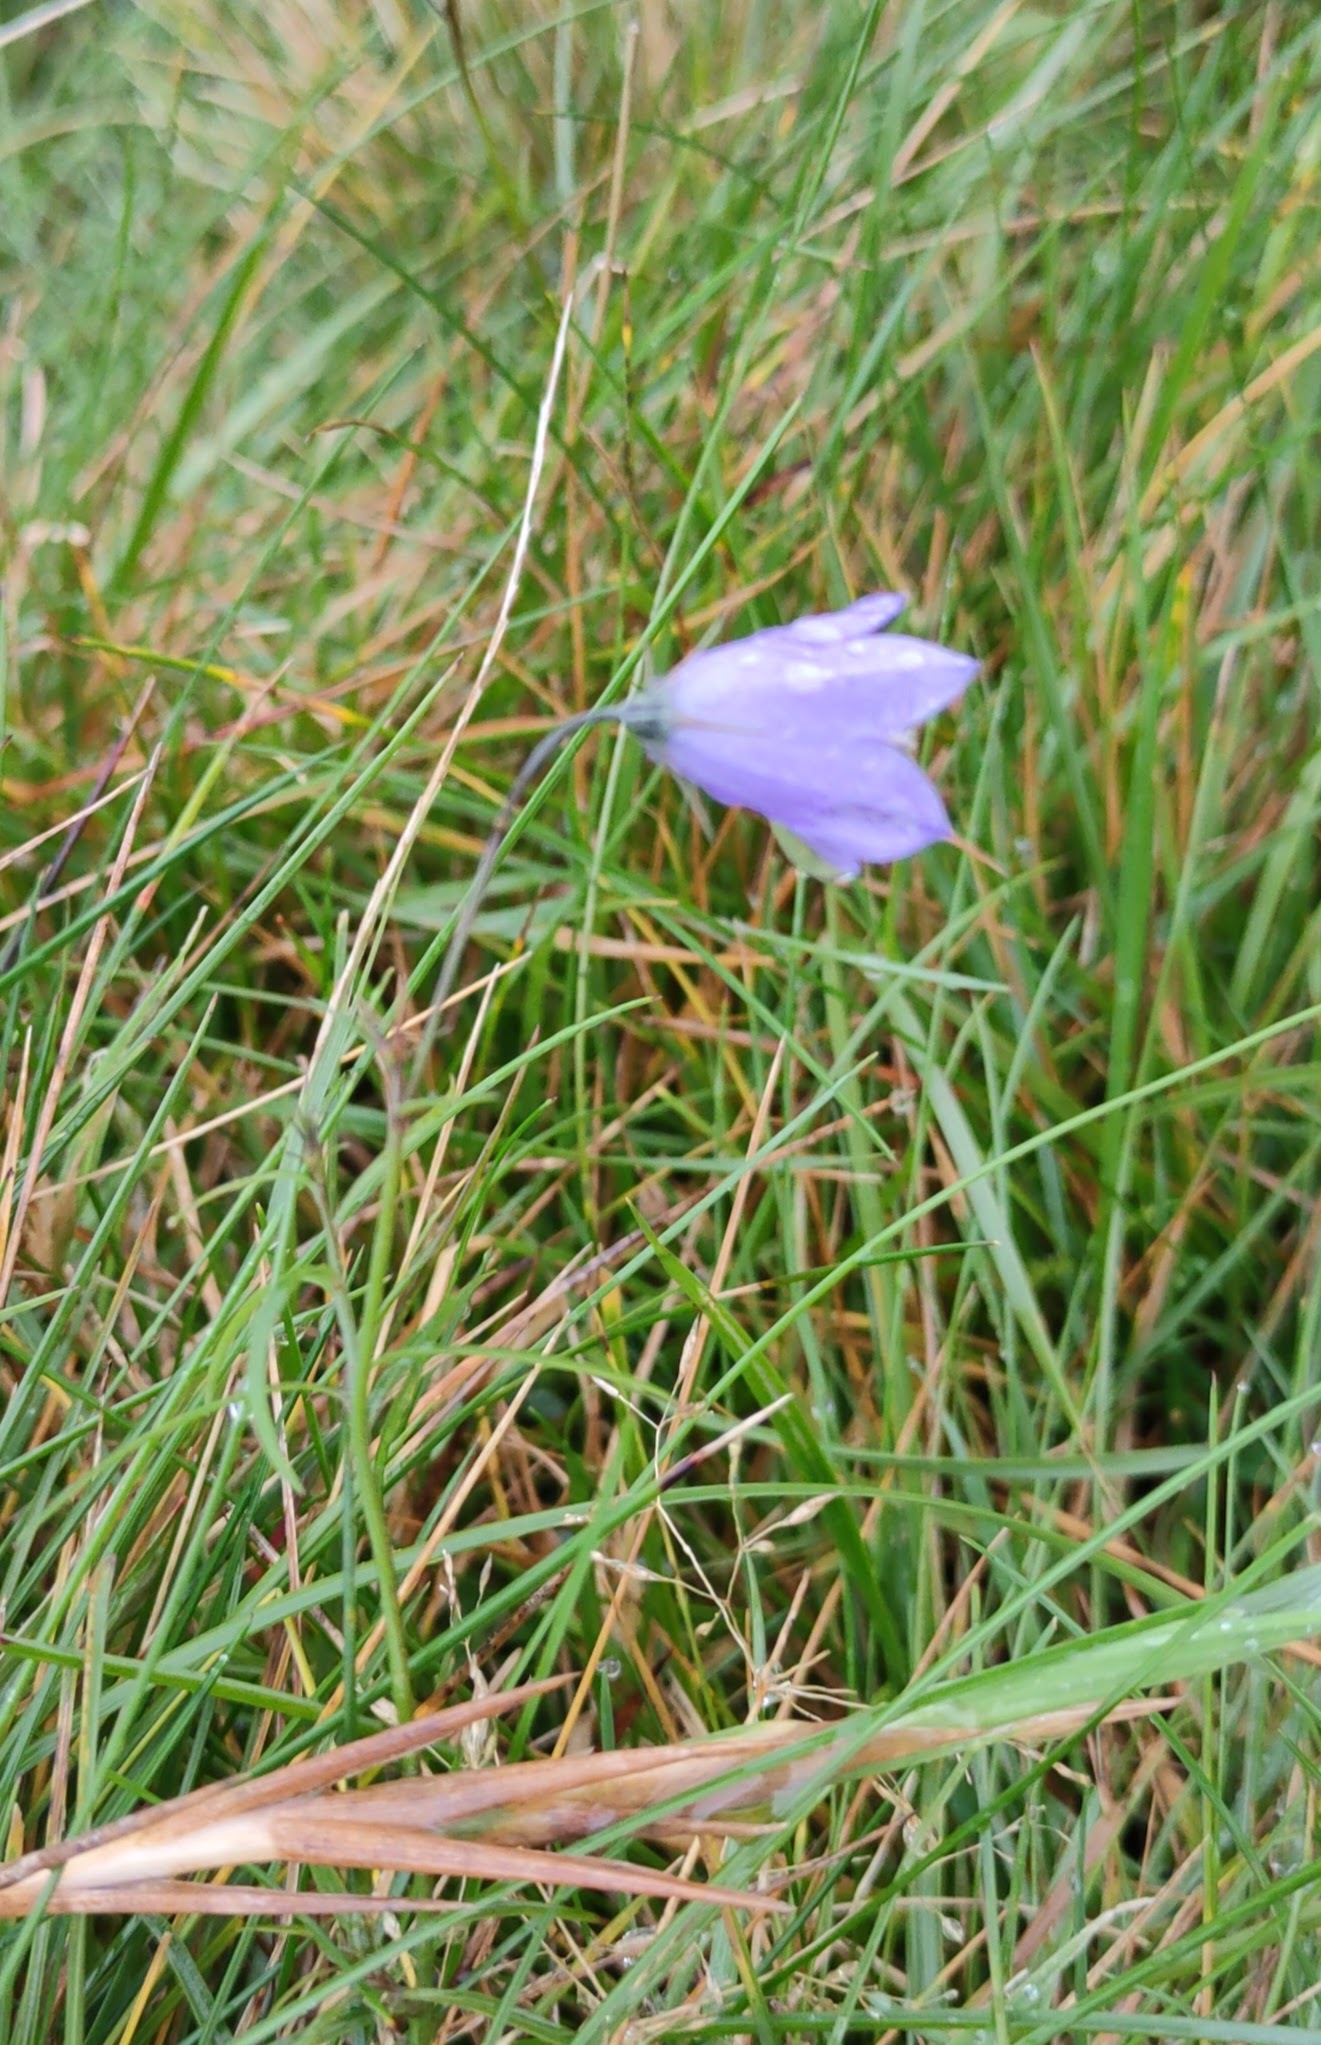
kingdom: Plantae
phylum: Tracheophyta
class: Magnoliopsida
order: Asterales
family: Campanulaceae
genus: Campanula
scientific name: Campanula rotundifolia
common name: Harebell
